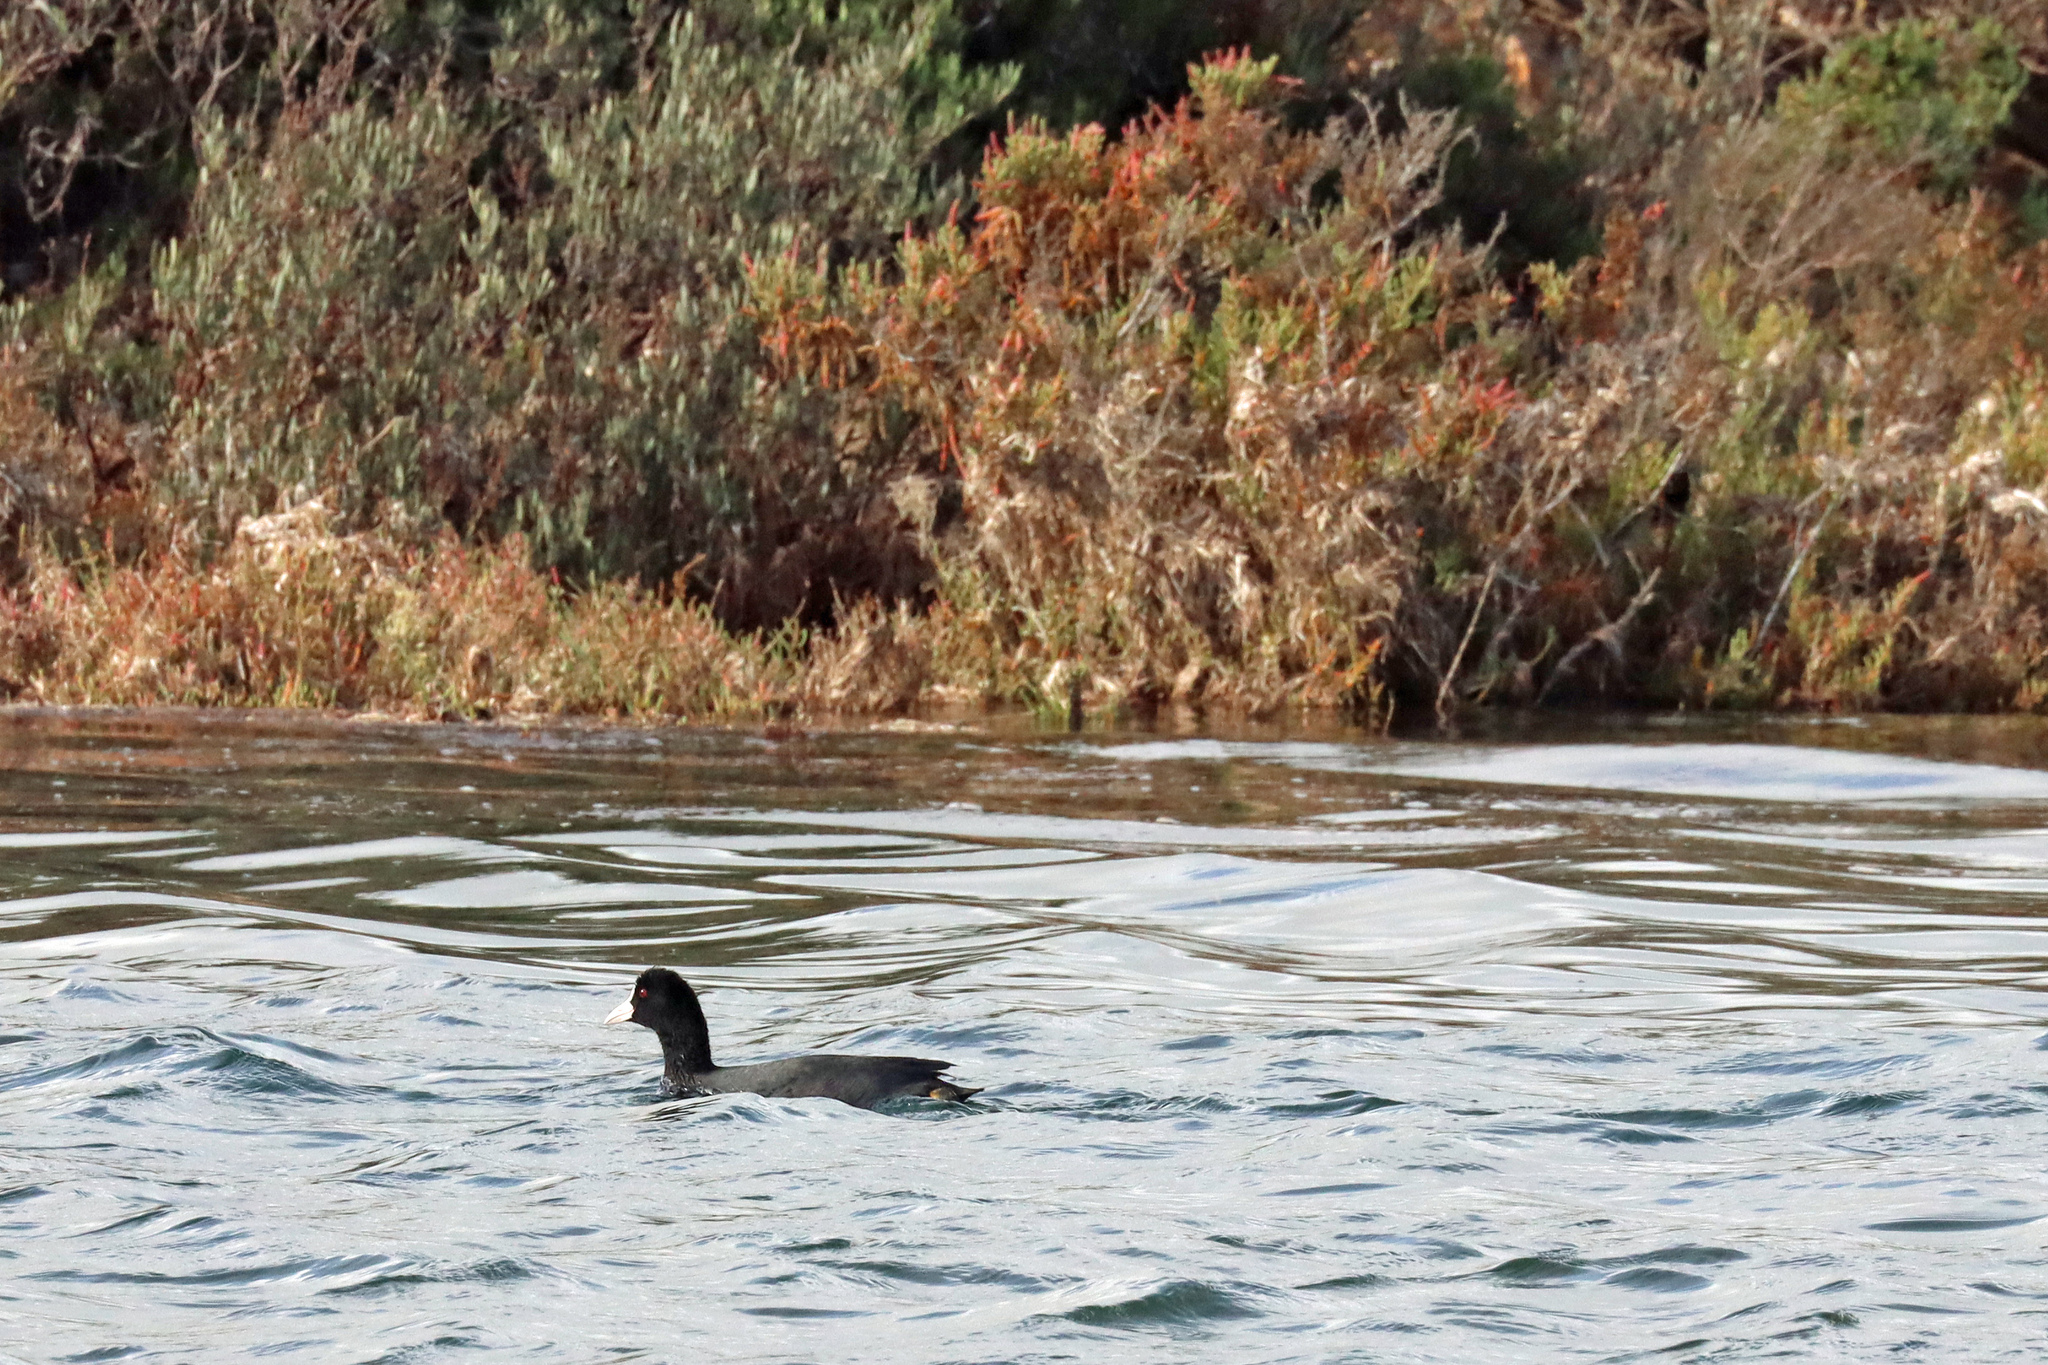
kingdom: Animalia
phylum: Chordata
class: Aves
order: Gruiformes
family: Rallidae
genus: Fulica
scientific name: Fulica atra
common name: Eurasian coot
